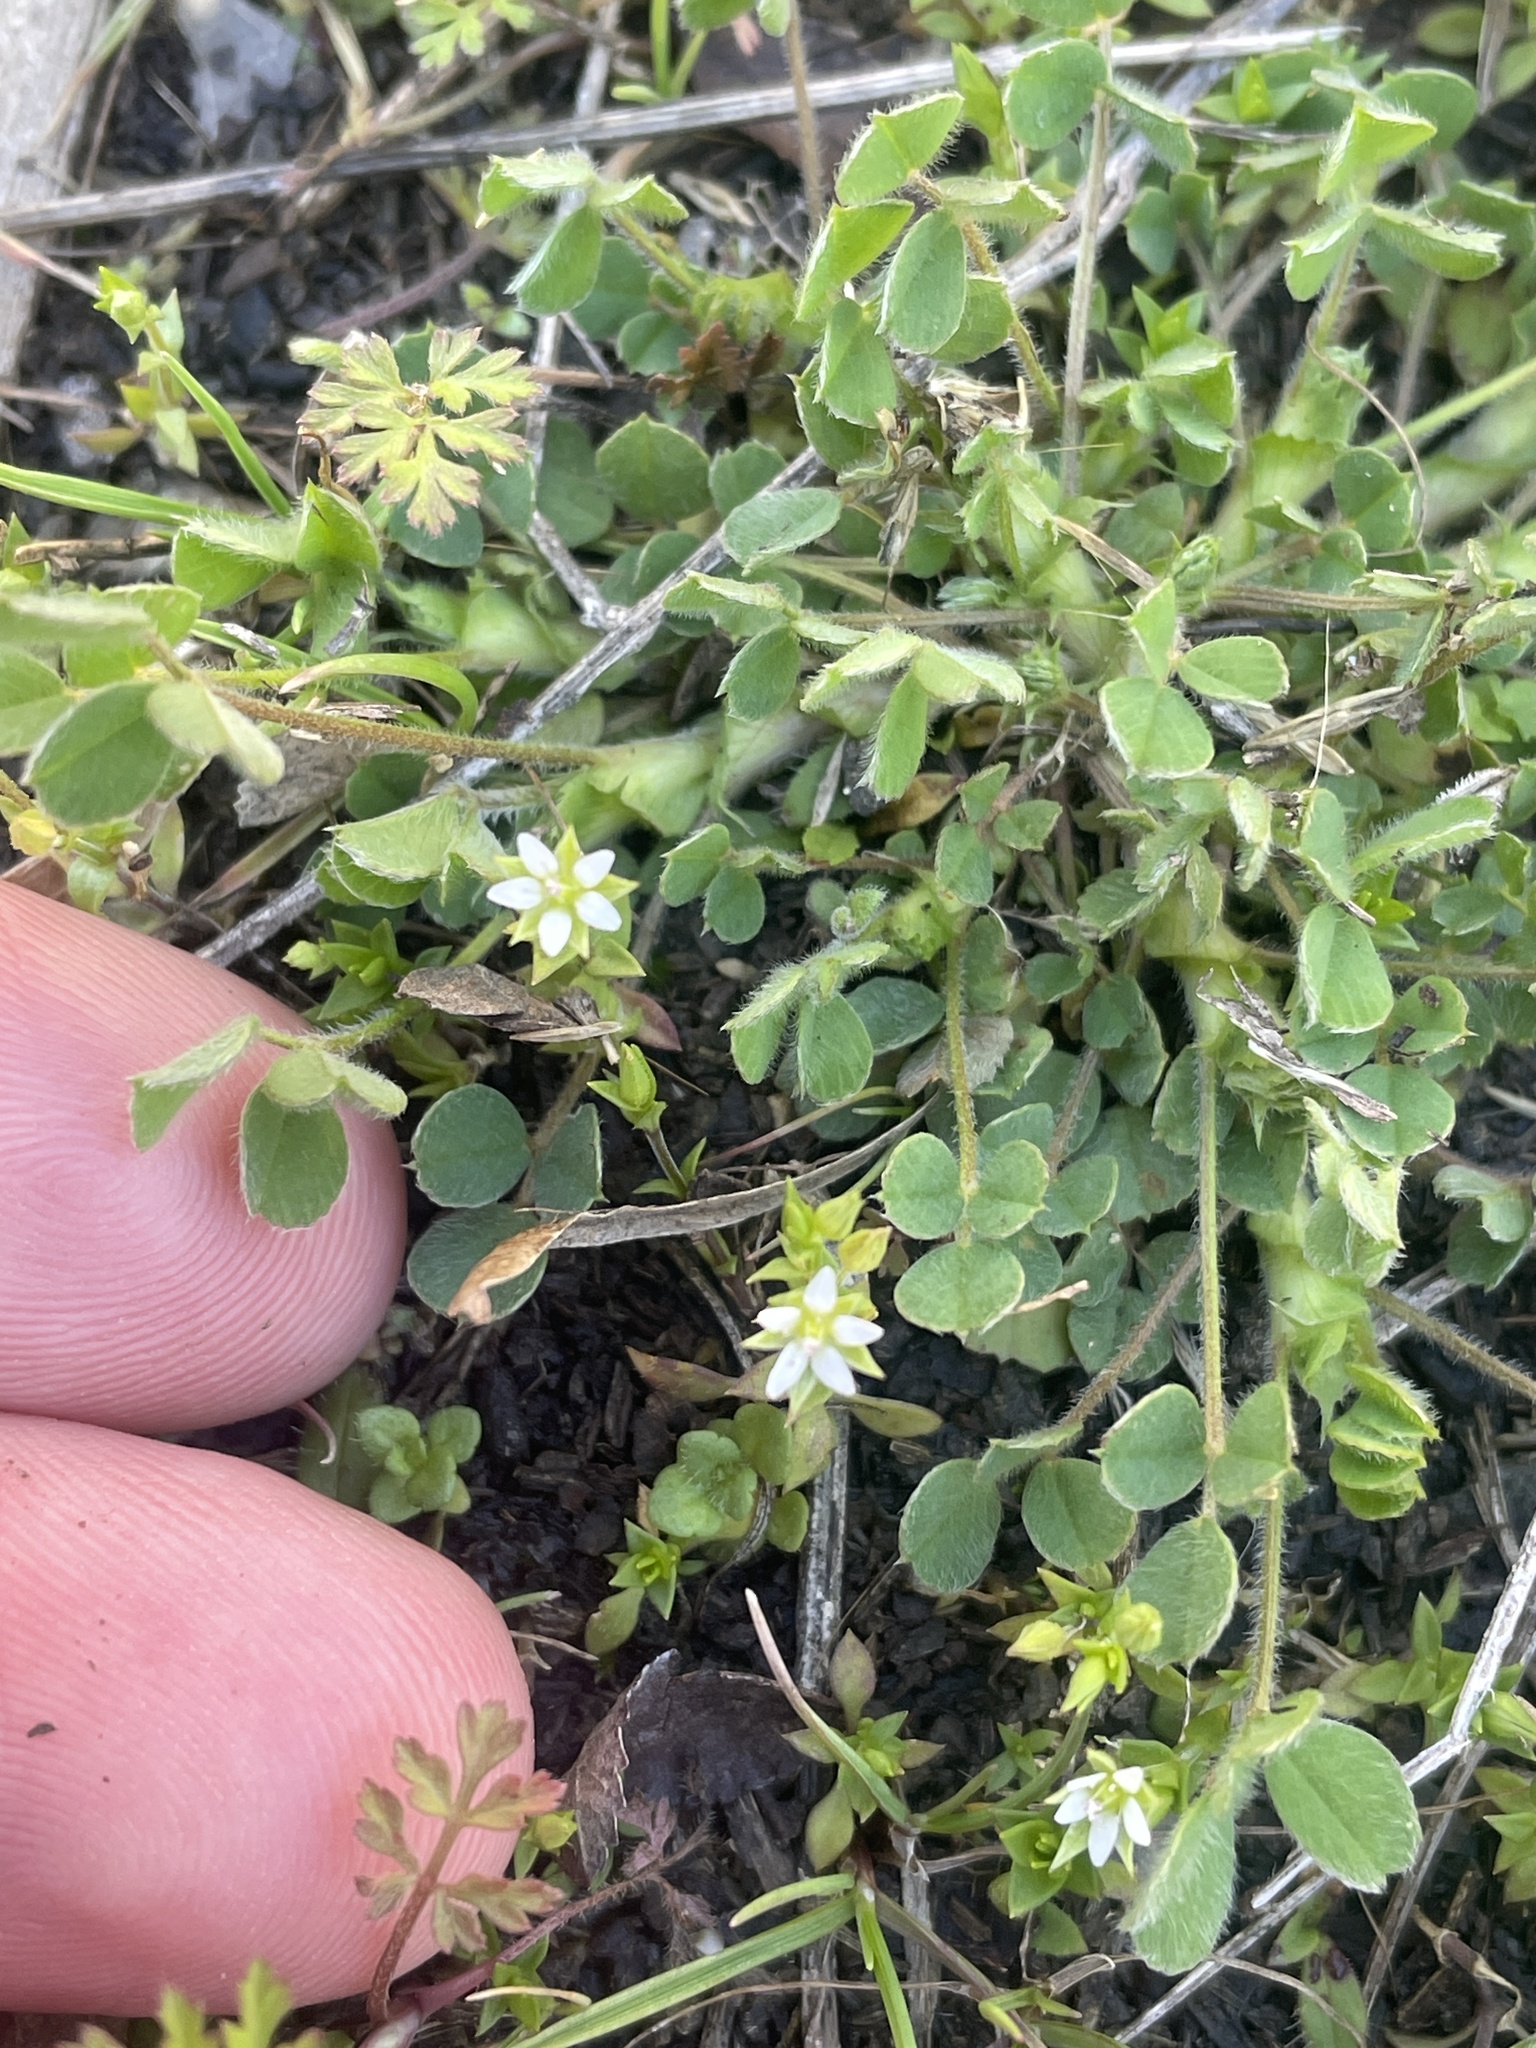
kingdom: Plantae
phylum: Tracheophyta
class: Magnoliopsida
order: Caryophyllales
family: Caryophyllaceae
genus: Arenaria
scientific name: Arenaria serpyllifolia
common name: Thyme-leaved sandwort
